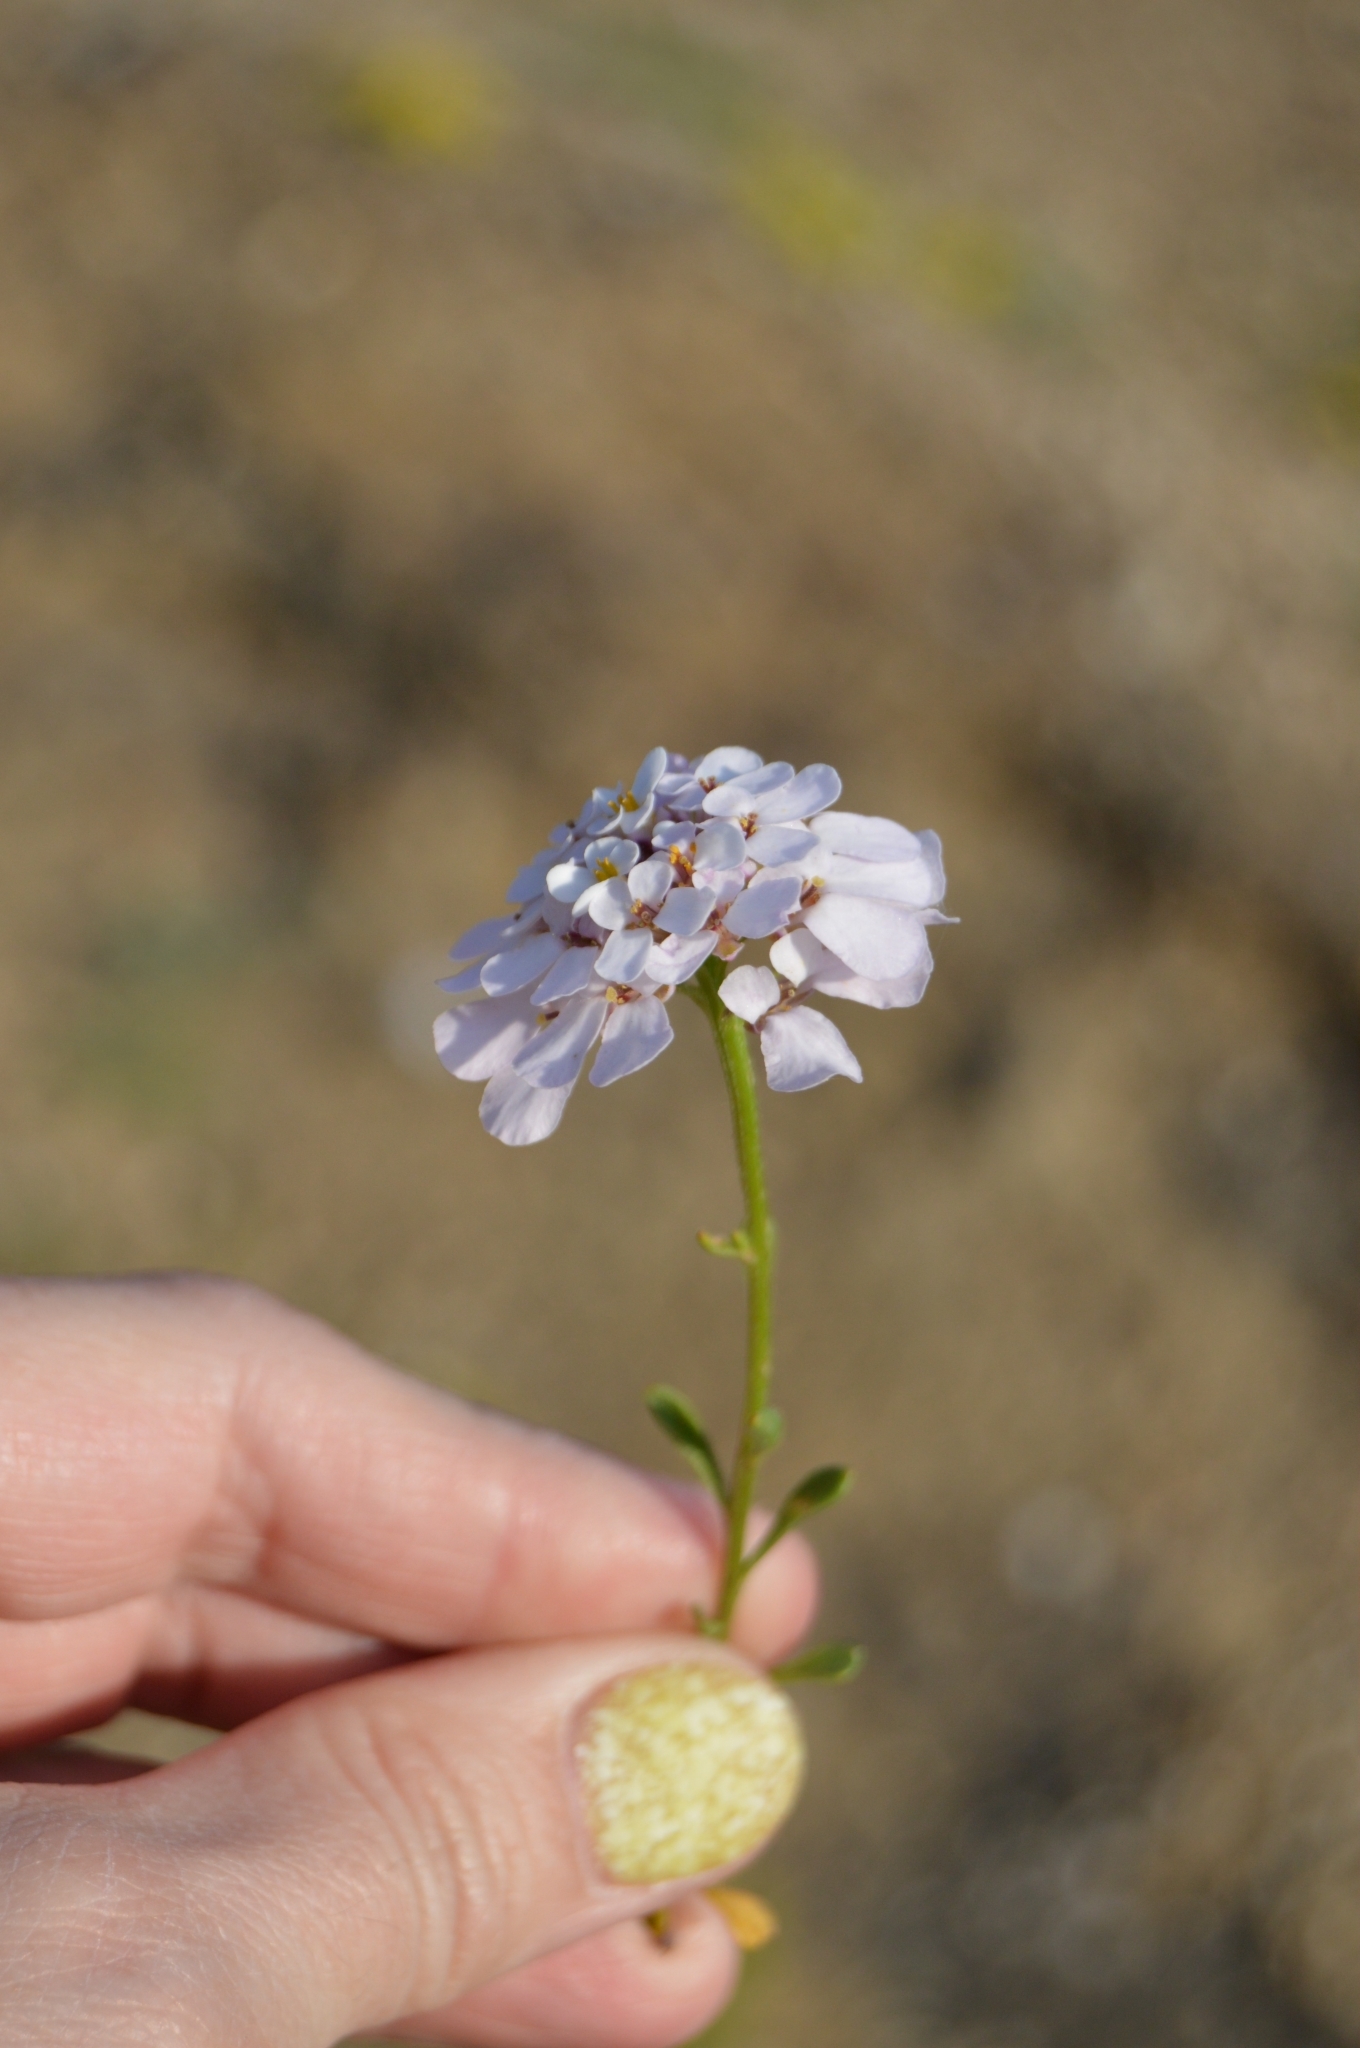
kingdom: Plantae
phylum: Tracheophyta
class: Magnoliopsida
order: Brassicales
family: Brassicaceae
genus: Iberis
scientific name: Iberis simplex
